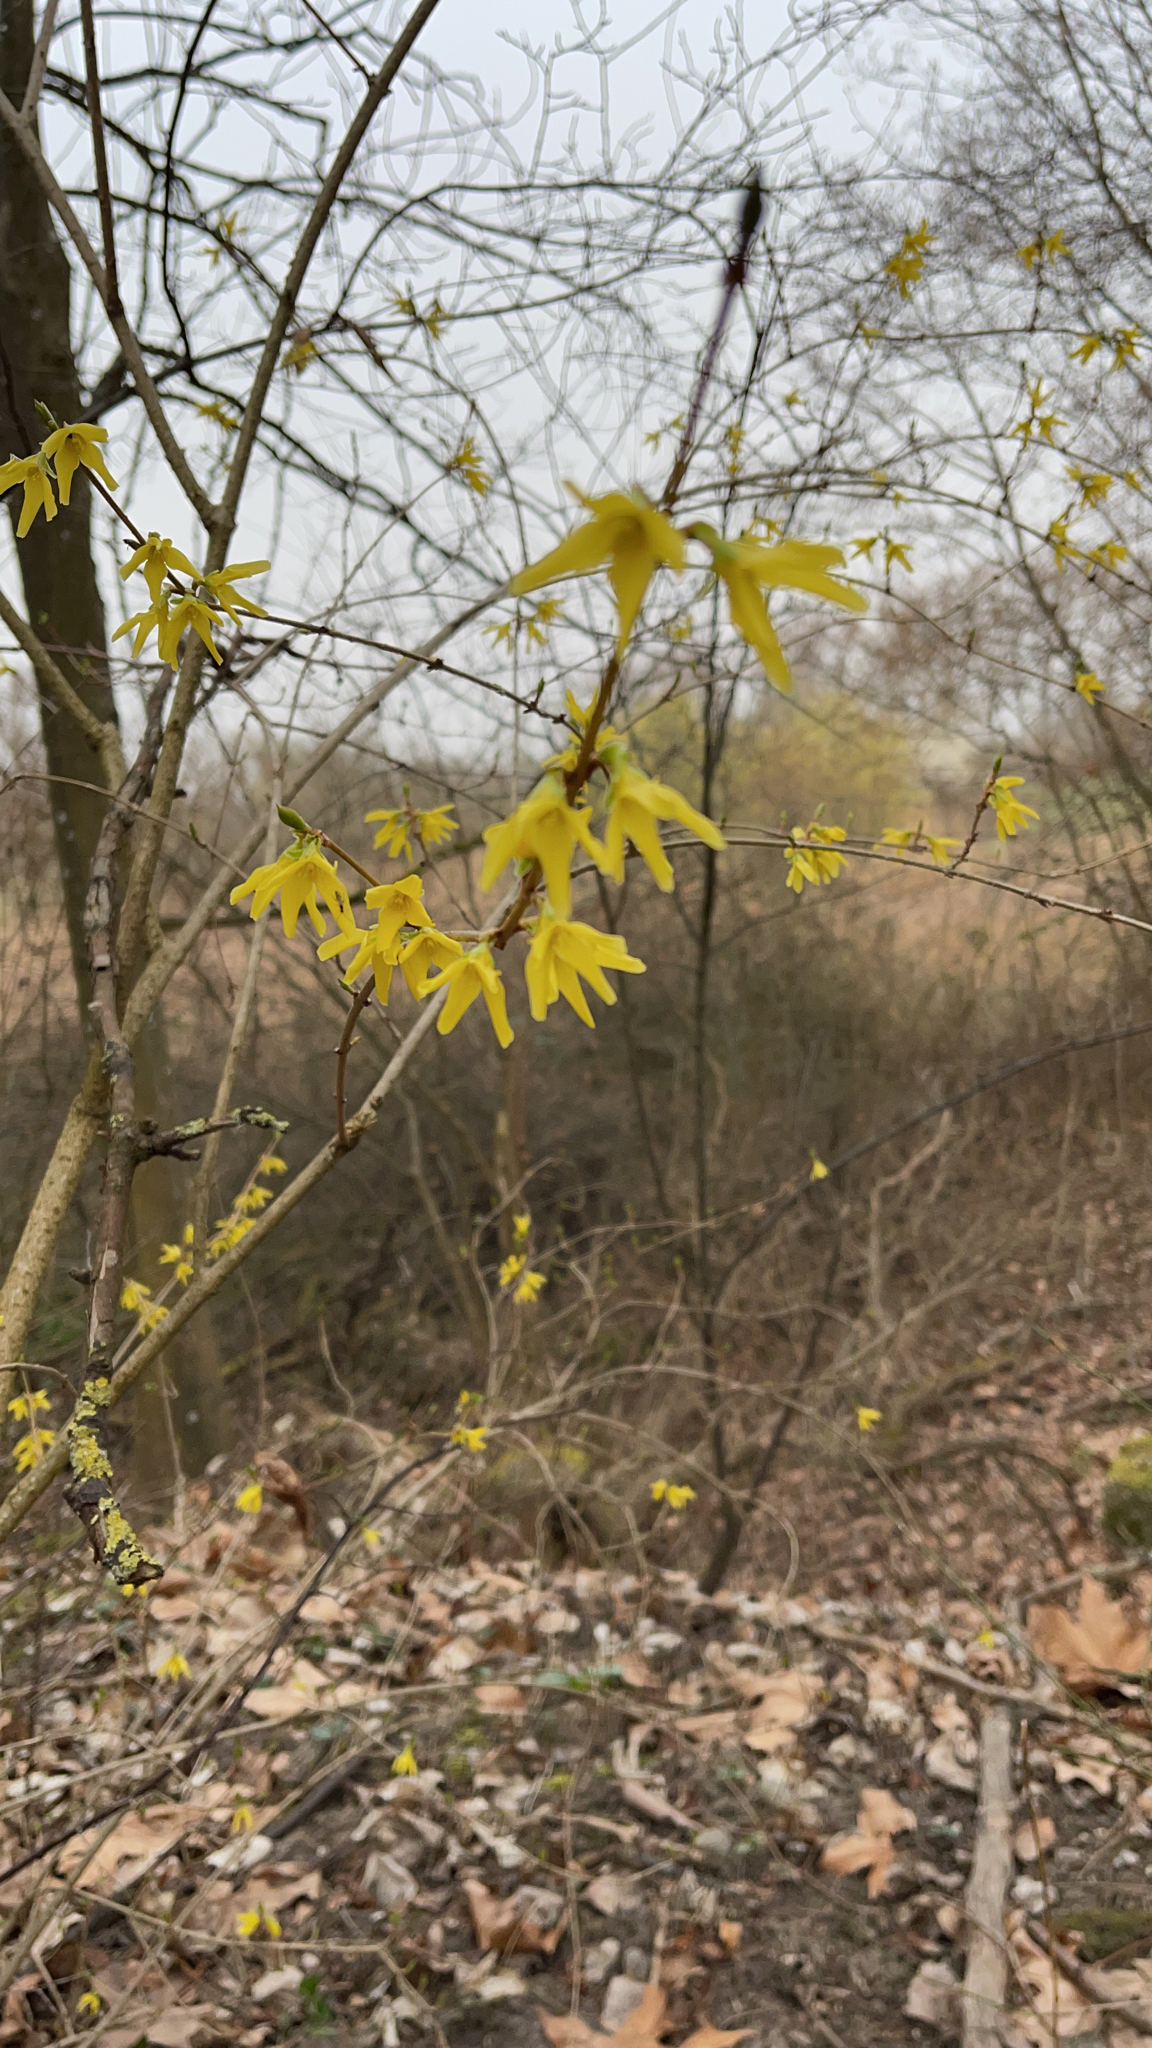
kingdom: Plantae
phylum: Tracheophyta
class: Magnoliopsida
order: Lamiales
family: Oleaceae
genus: Forsythia
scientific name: Forsythia intermedia
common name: Forsythia
